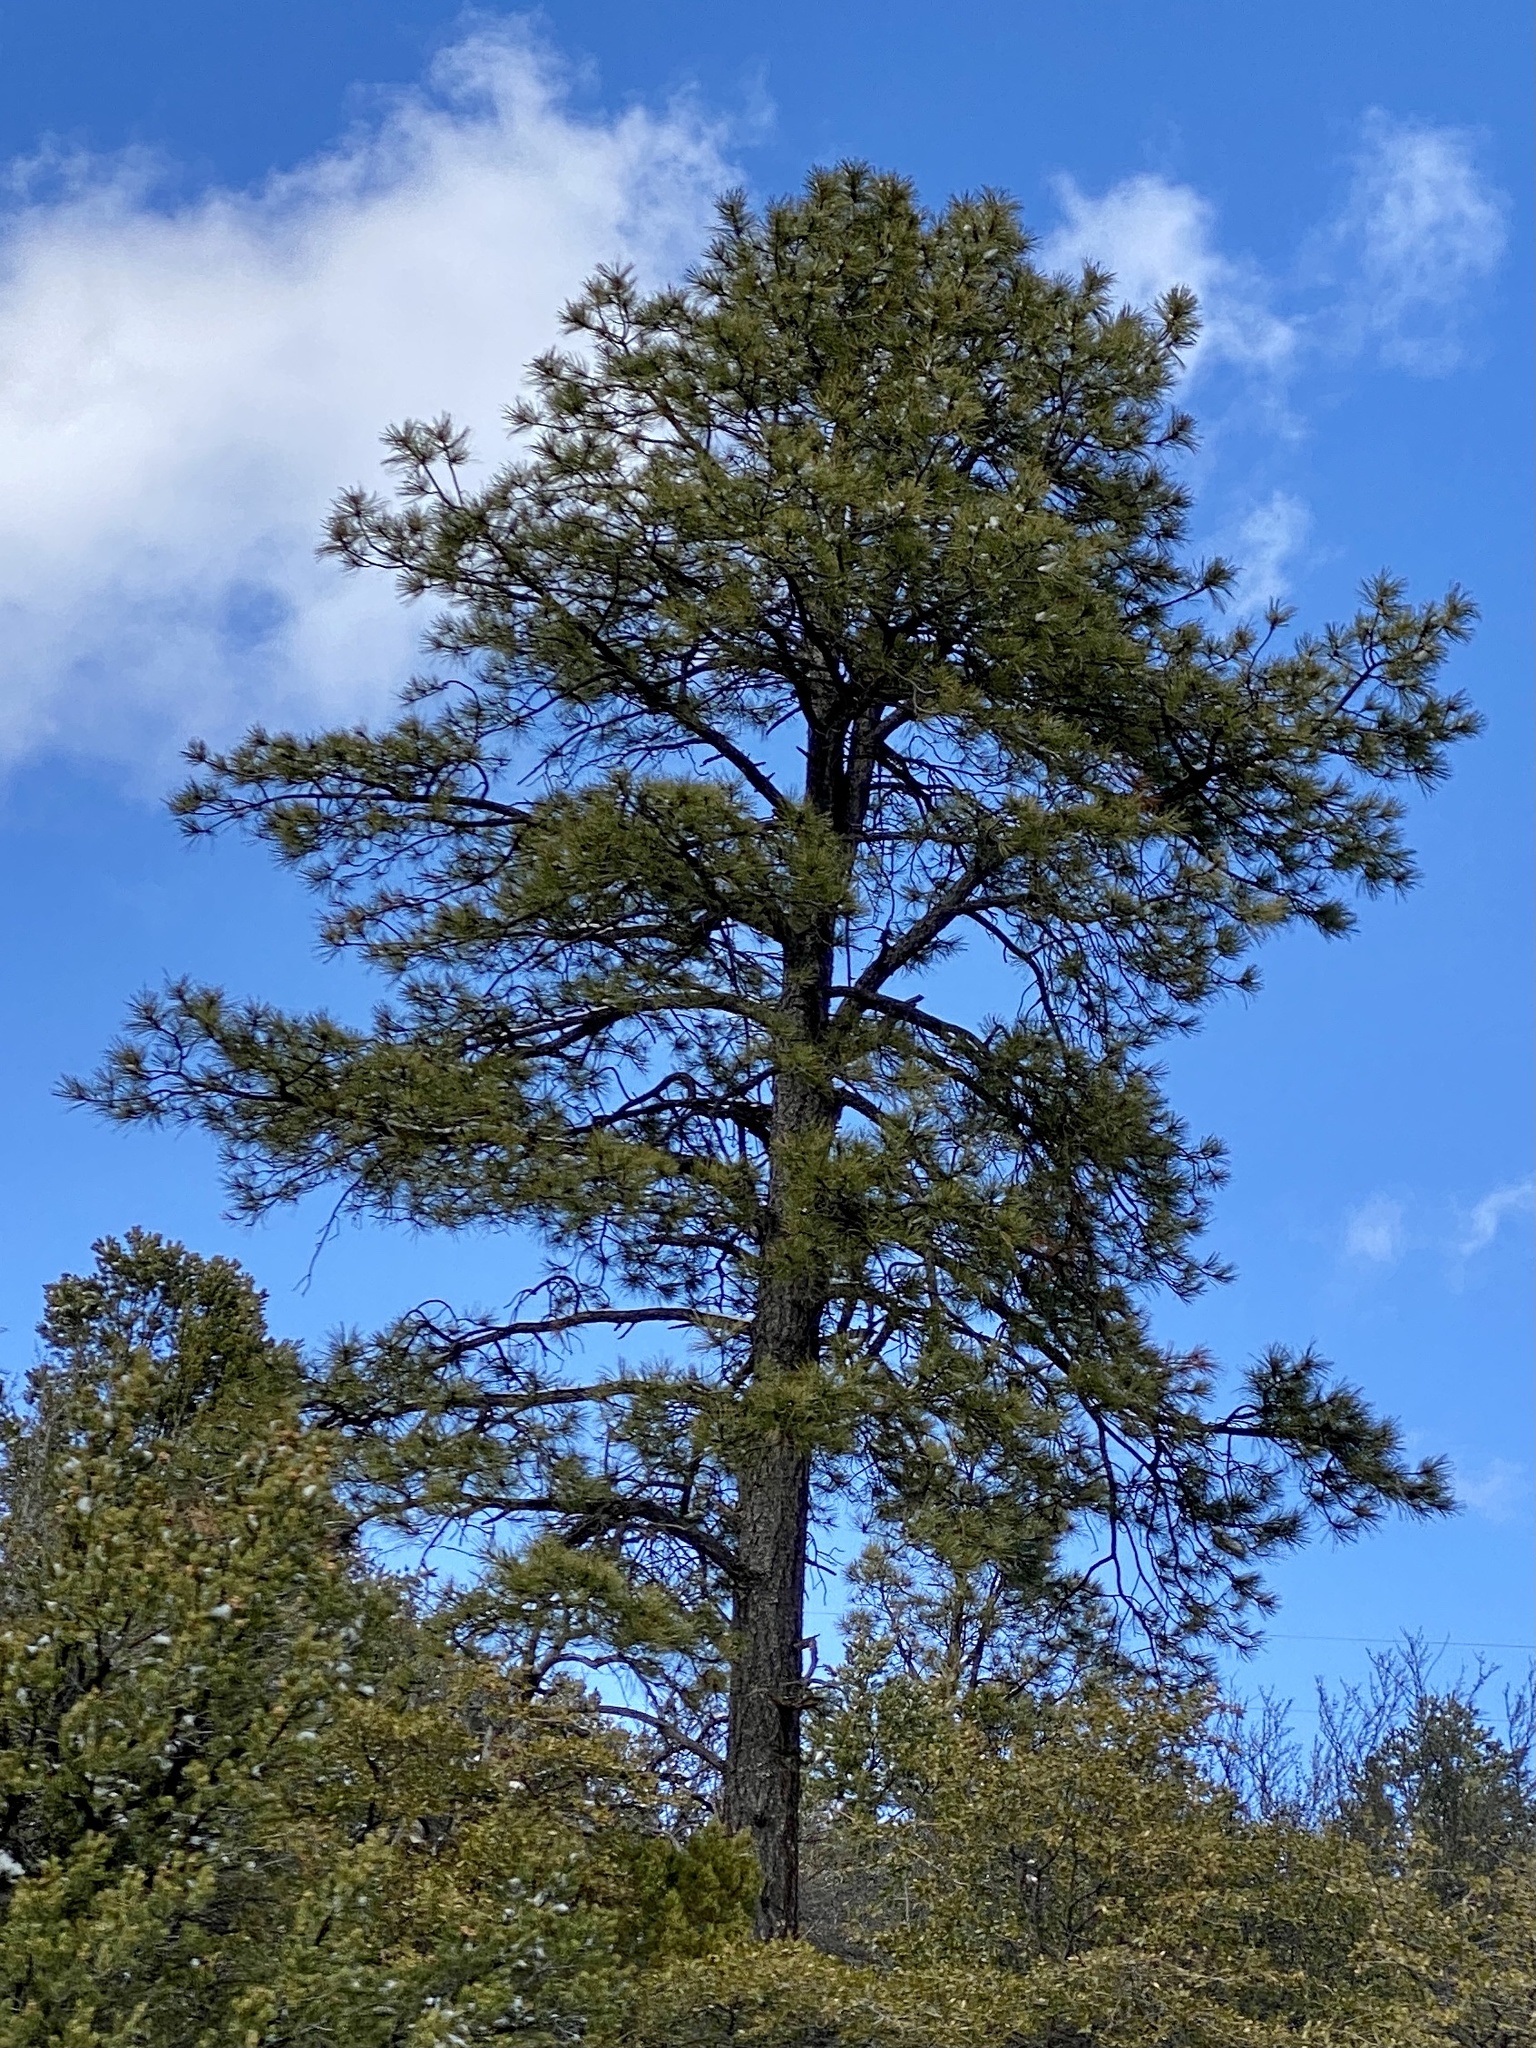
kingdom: Plantae
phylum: Tracheophyta
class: Pinopsida
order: Pinales
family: Pinaceae
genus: Pinus
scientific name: Pinus ponderosa
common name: Western yellow-pine
